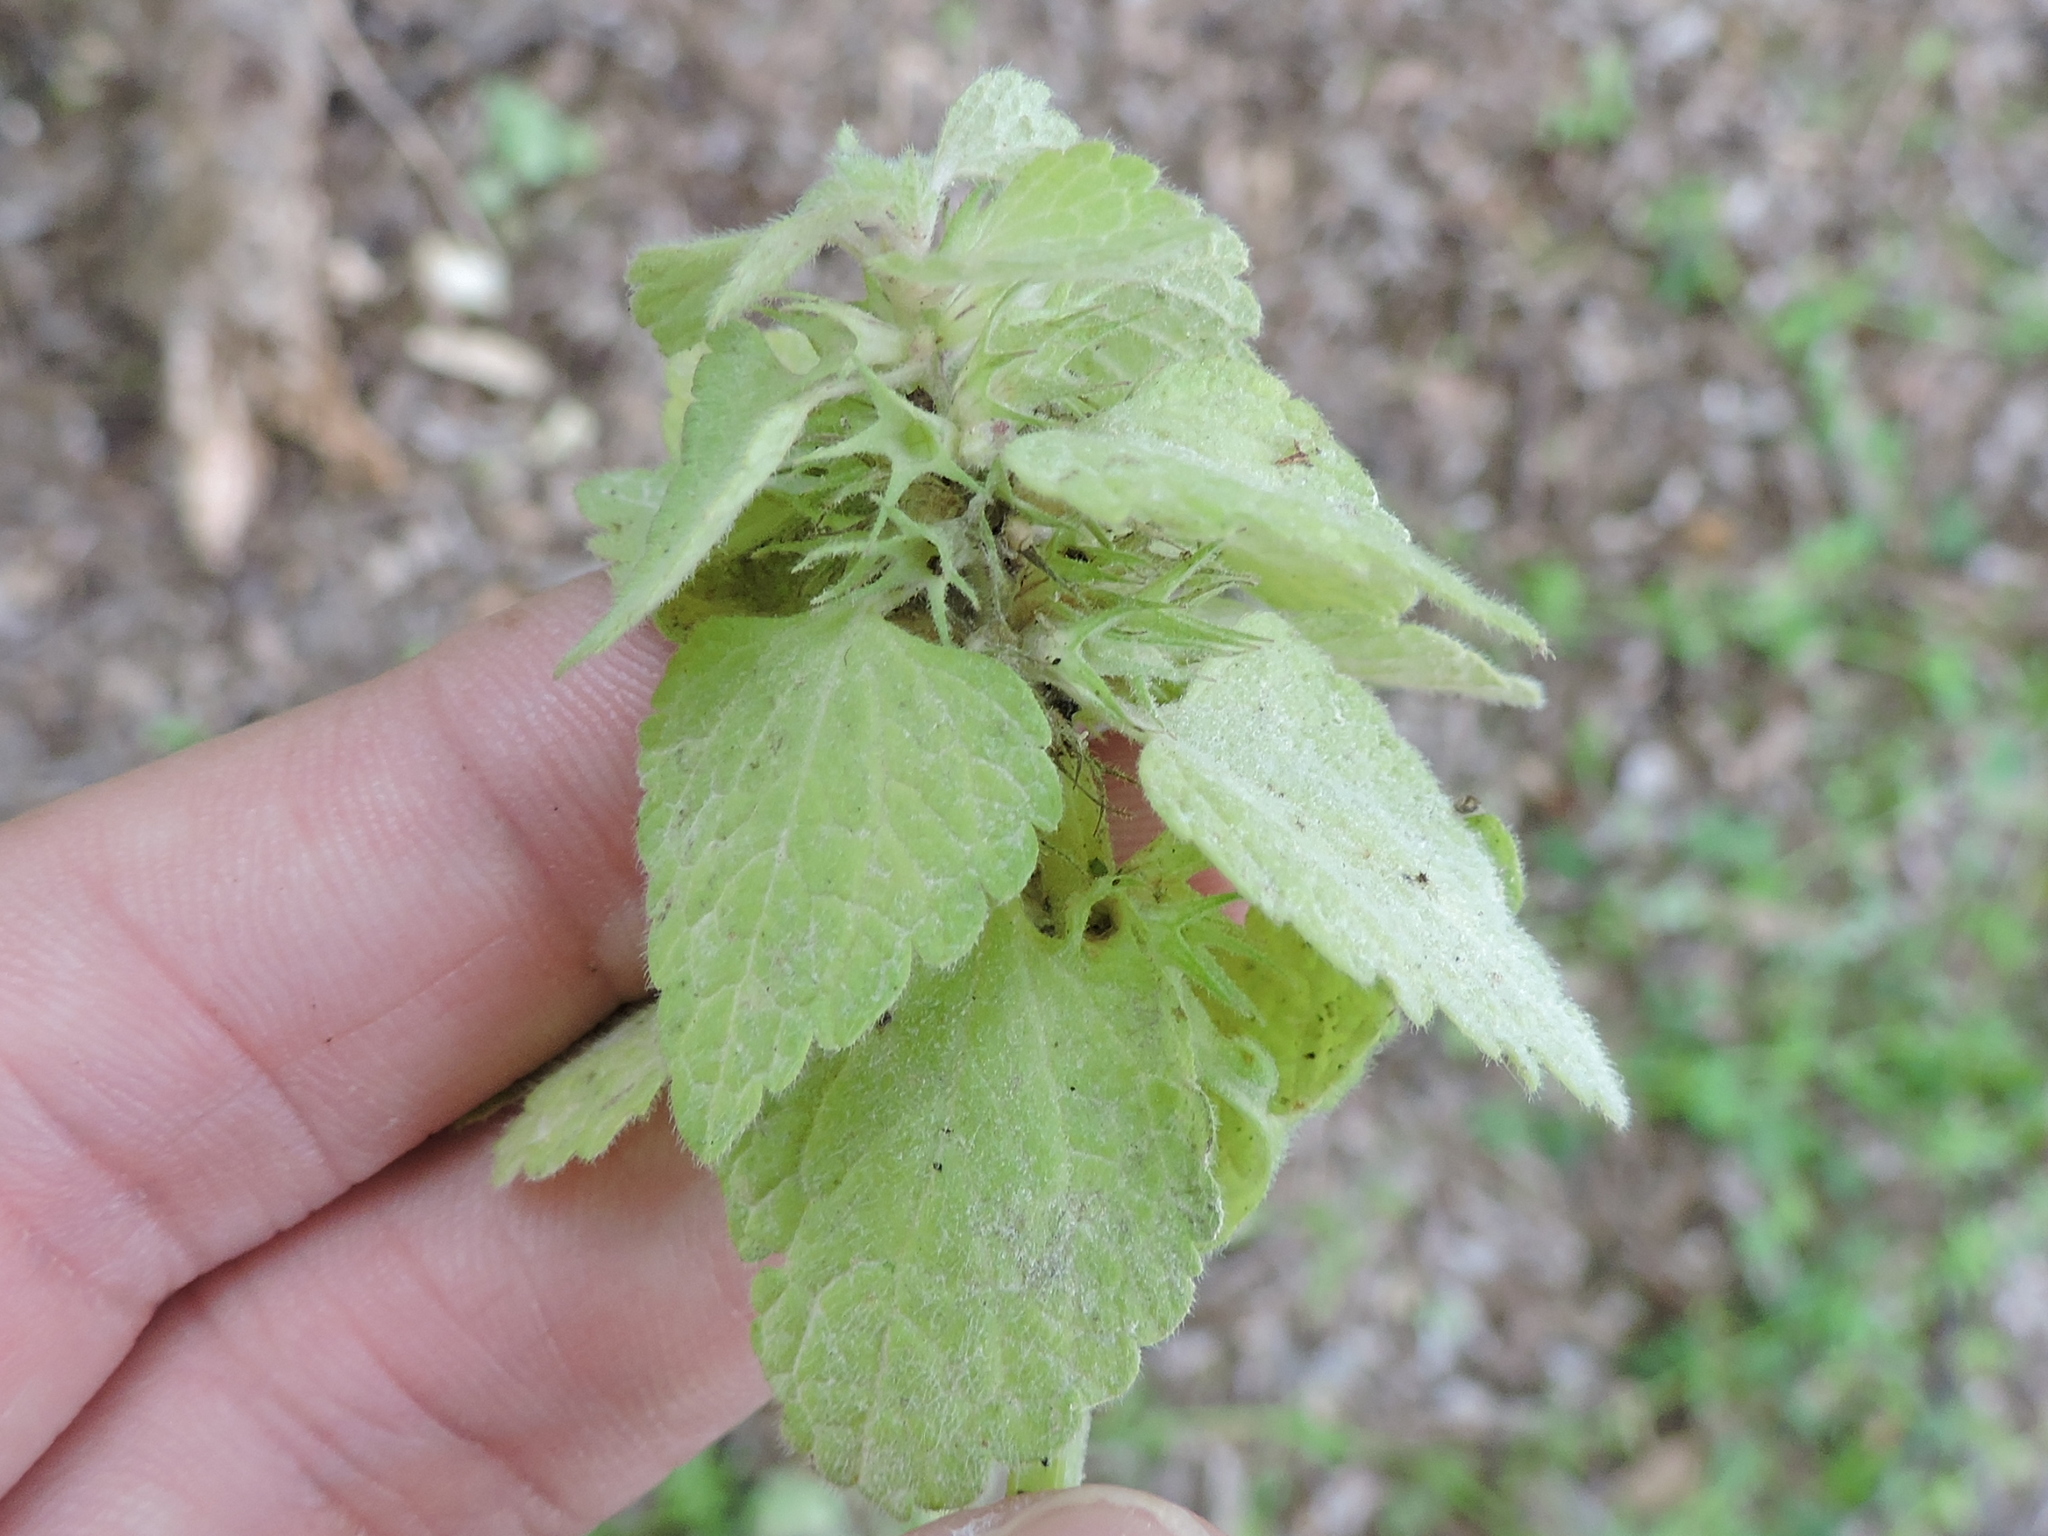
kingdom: Plantae
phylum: Tracheophyta
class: Magnoliopsida
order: Lamiales
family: Lamiaceae
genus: Lamium
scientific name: Lamium purpureum
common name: Red dead-nettle
